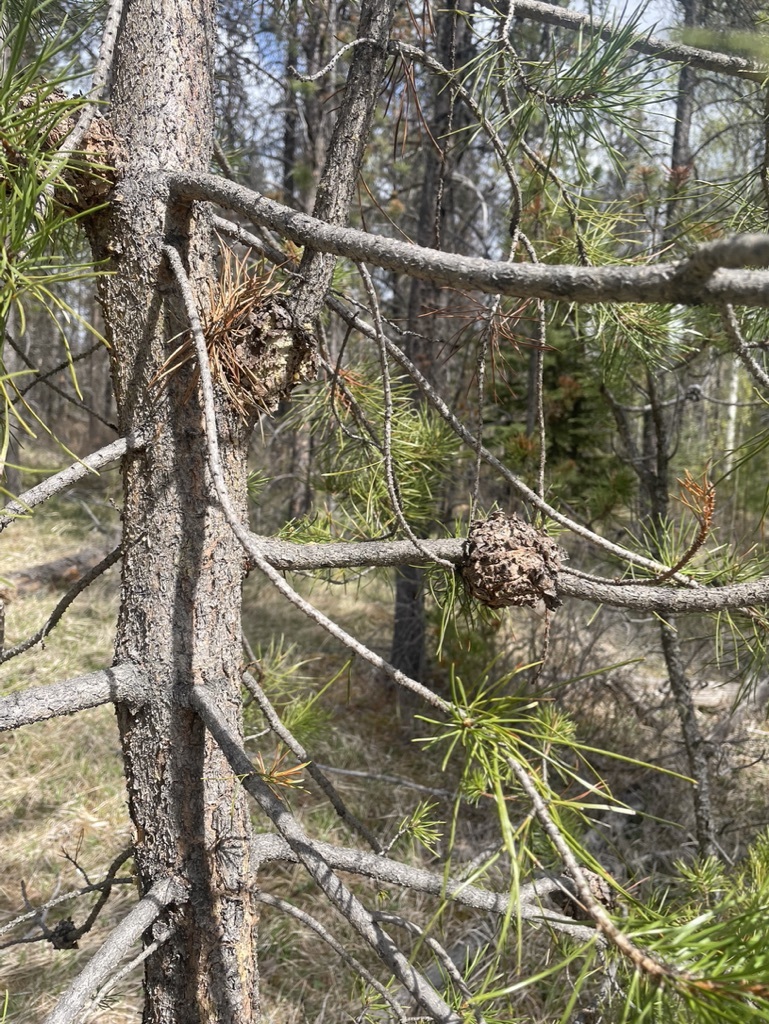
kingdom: Fungi
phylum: Basidiomycota
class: Pucciniomycetes
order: Pucciniales
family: Cronartiaceae
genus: Cronartium
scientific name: Cronartium harknessii
